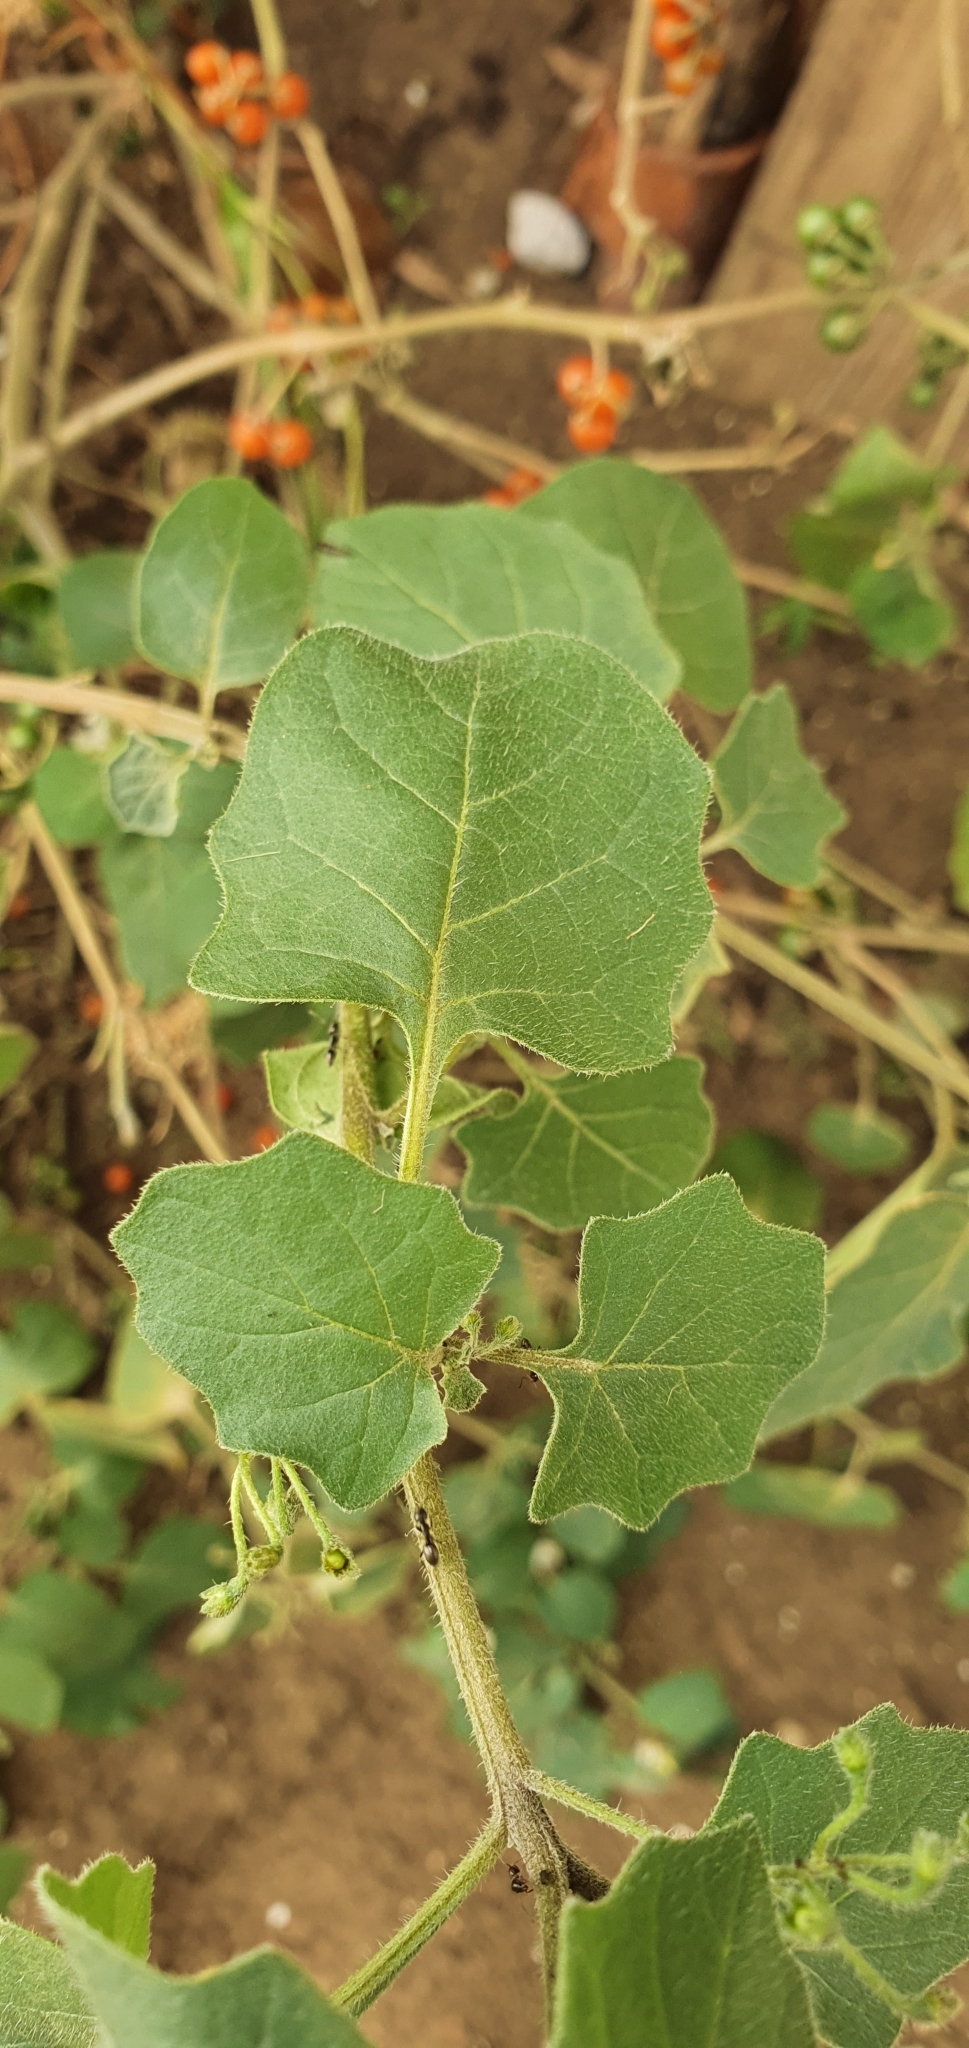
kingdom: Plantae
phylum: Tracheophyta
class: Magnoliopsida
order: Solanales
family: Solanaceae
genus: Solanum
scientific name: Solanum villosum
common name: Red nightshade
